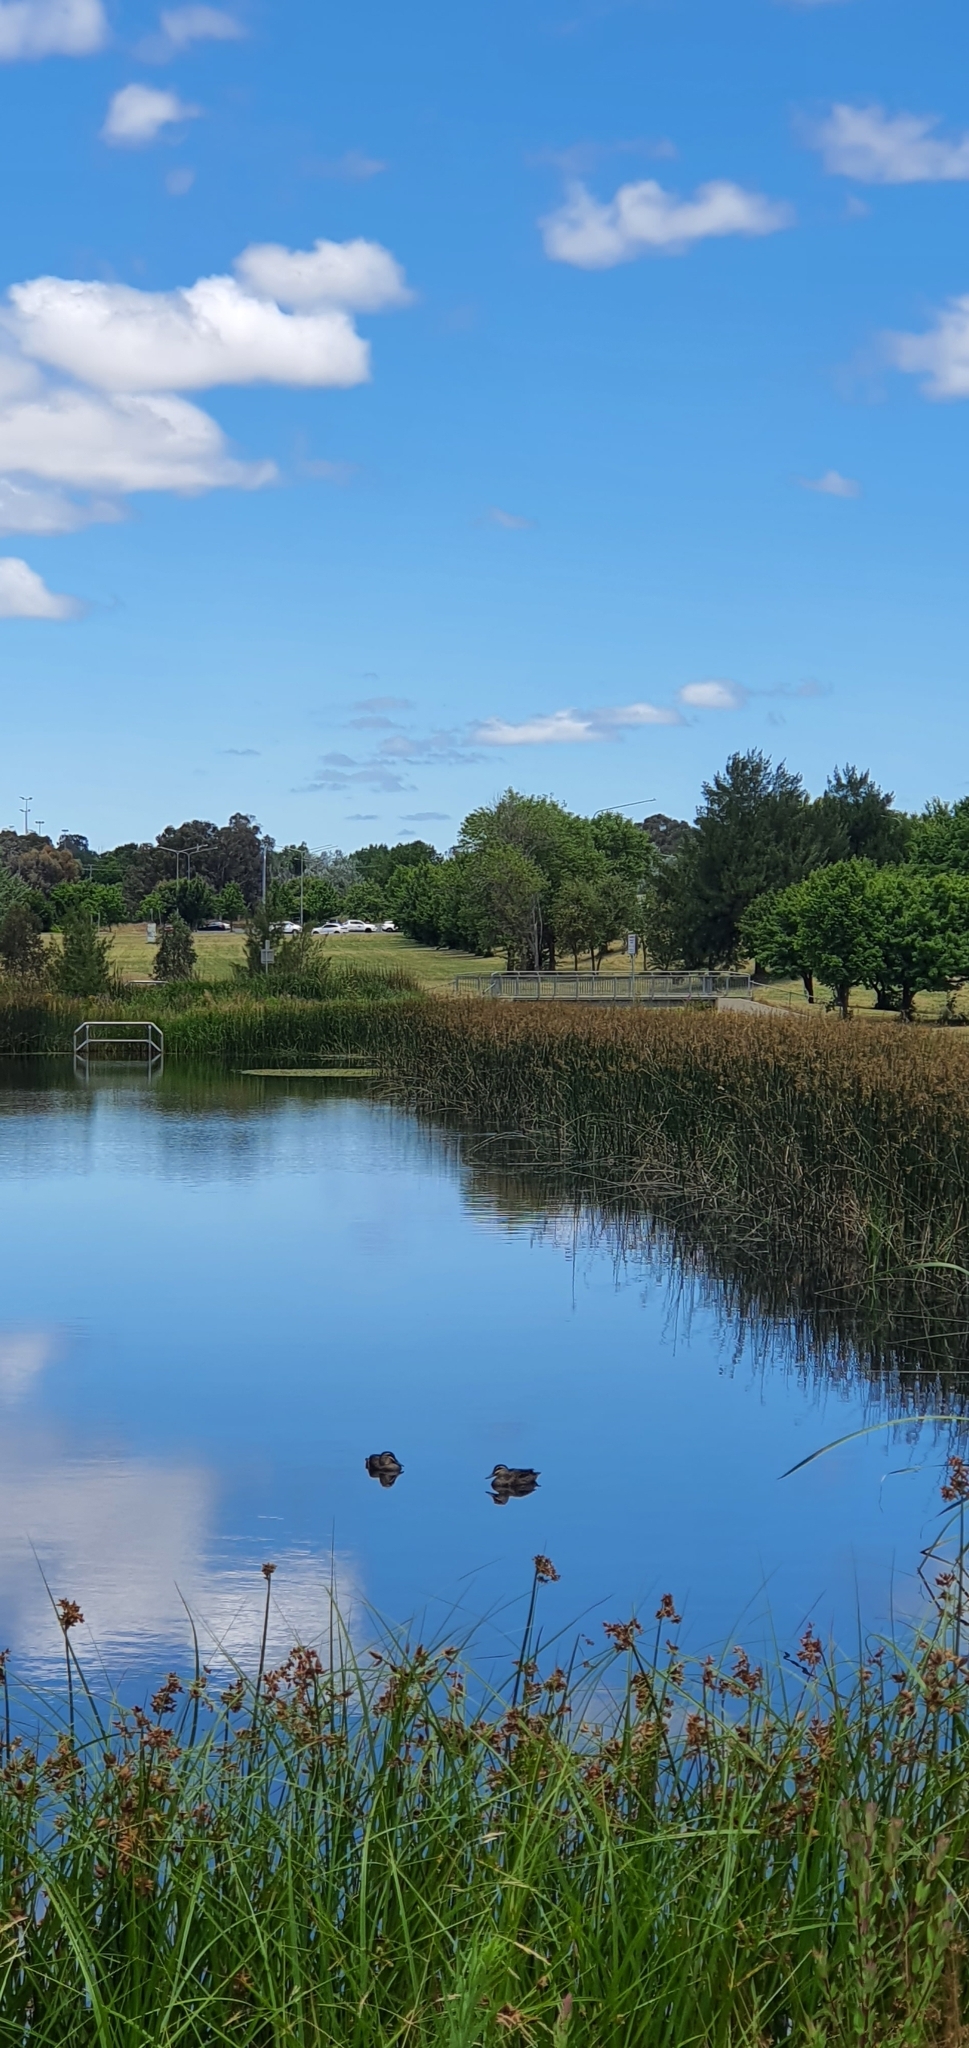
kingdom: Animalia
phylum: Chordata
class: Aves
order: Anseriformes
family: Anatidae
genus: Anas
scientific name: Anas superciliosa
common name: Pacific black duck
